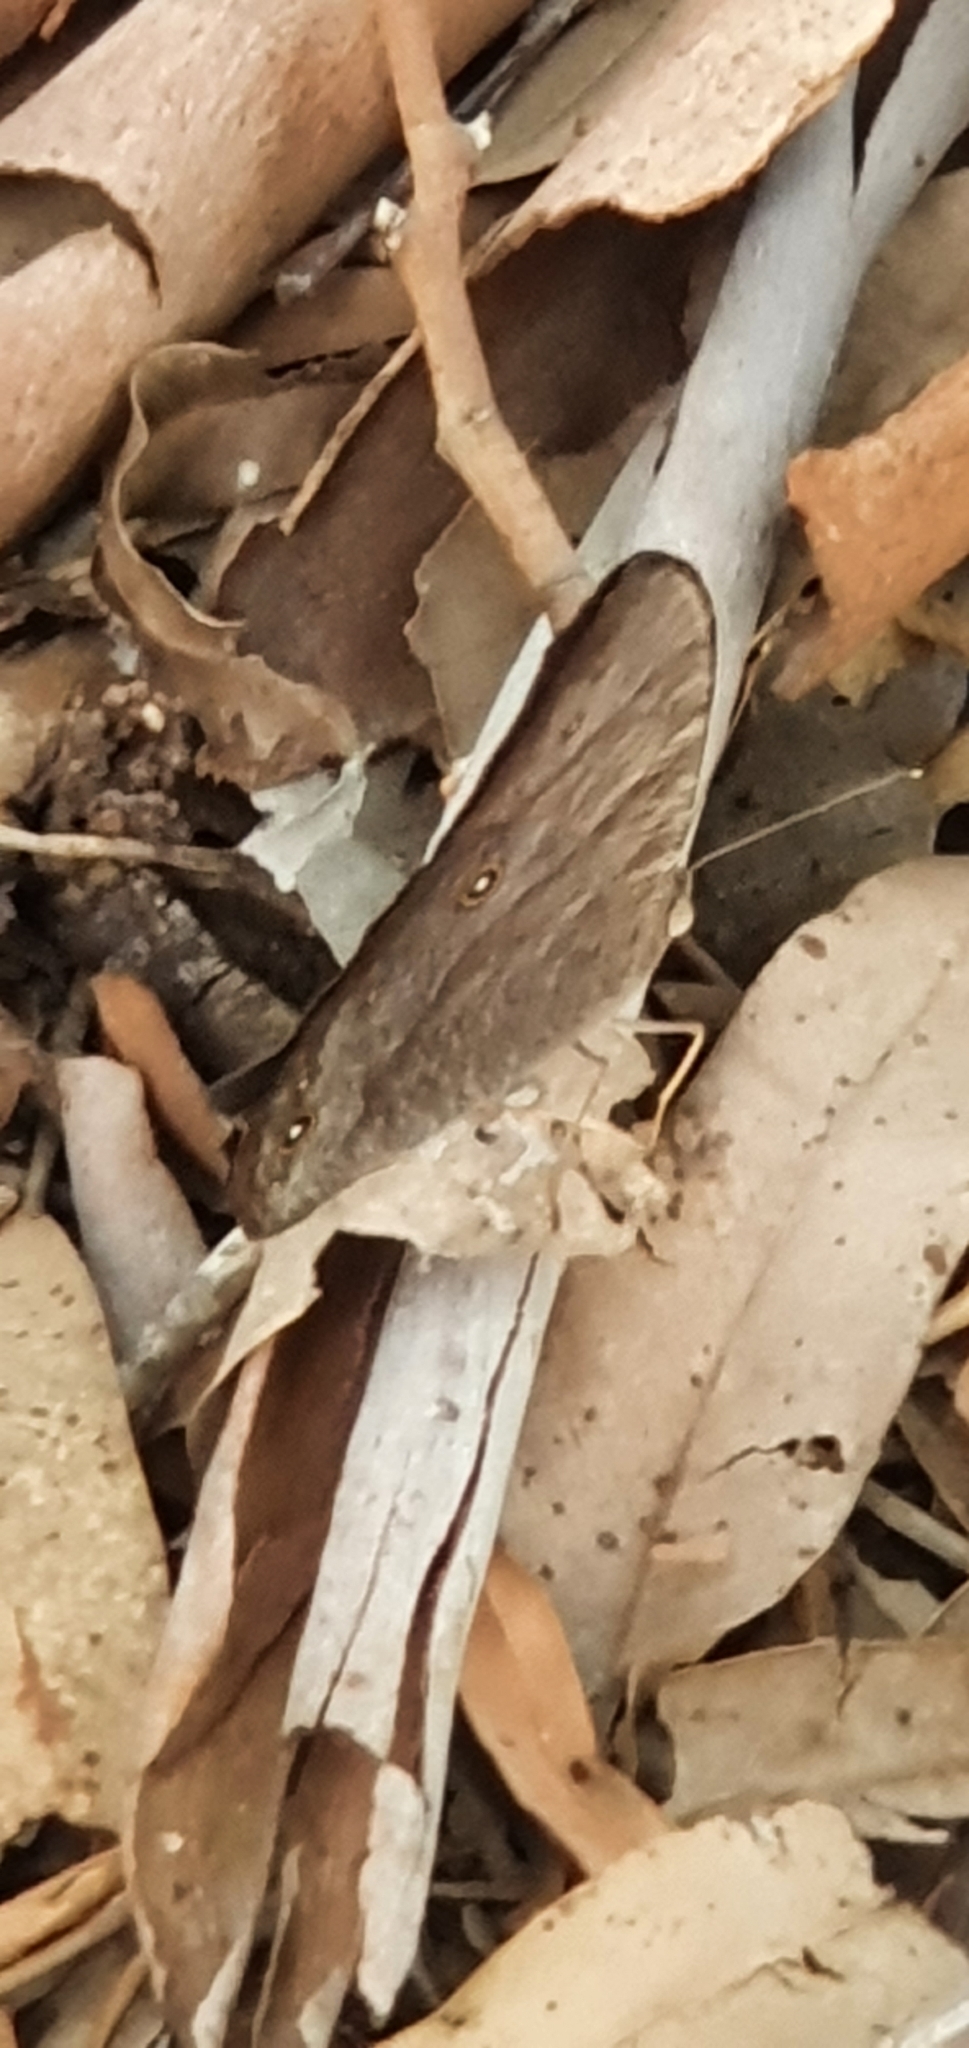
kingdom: Animalia
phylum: Arthropoda
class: Insecta
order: Lepidoptera
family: Nymphalidae
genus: Melanitis
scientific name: Melanitis leda
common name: Twilight brown
